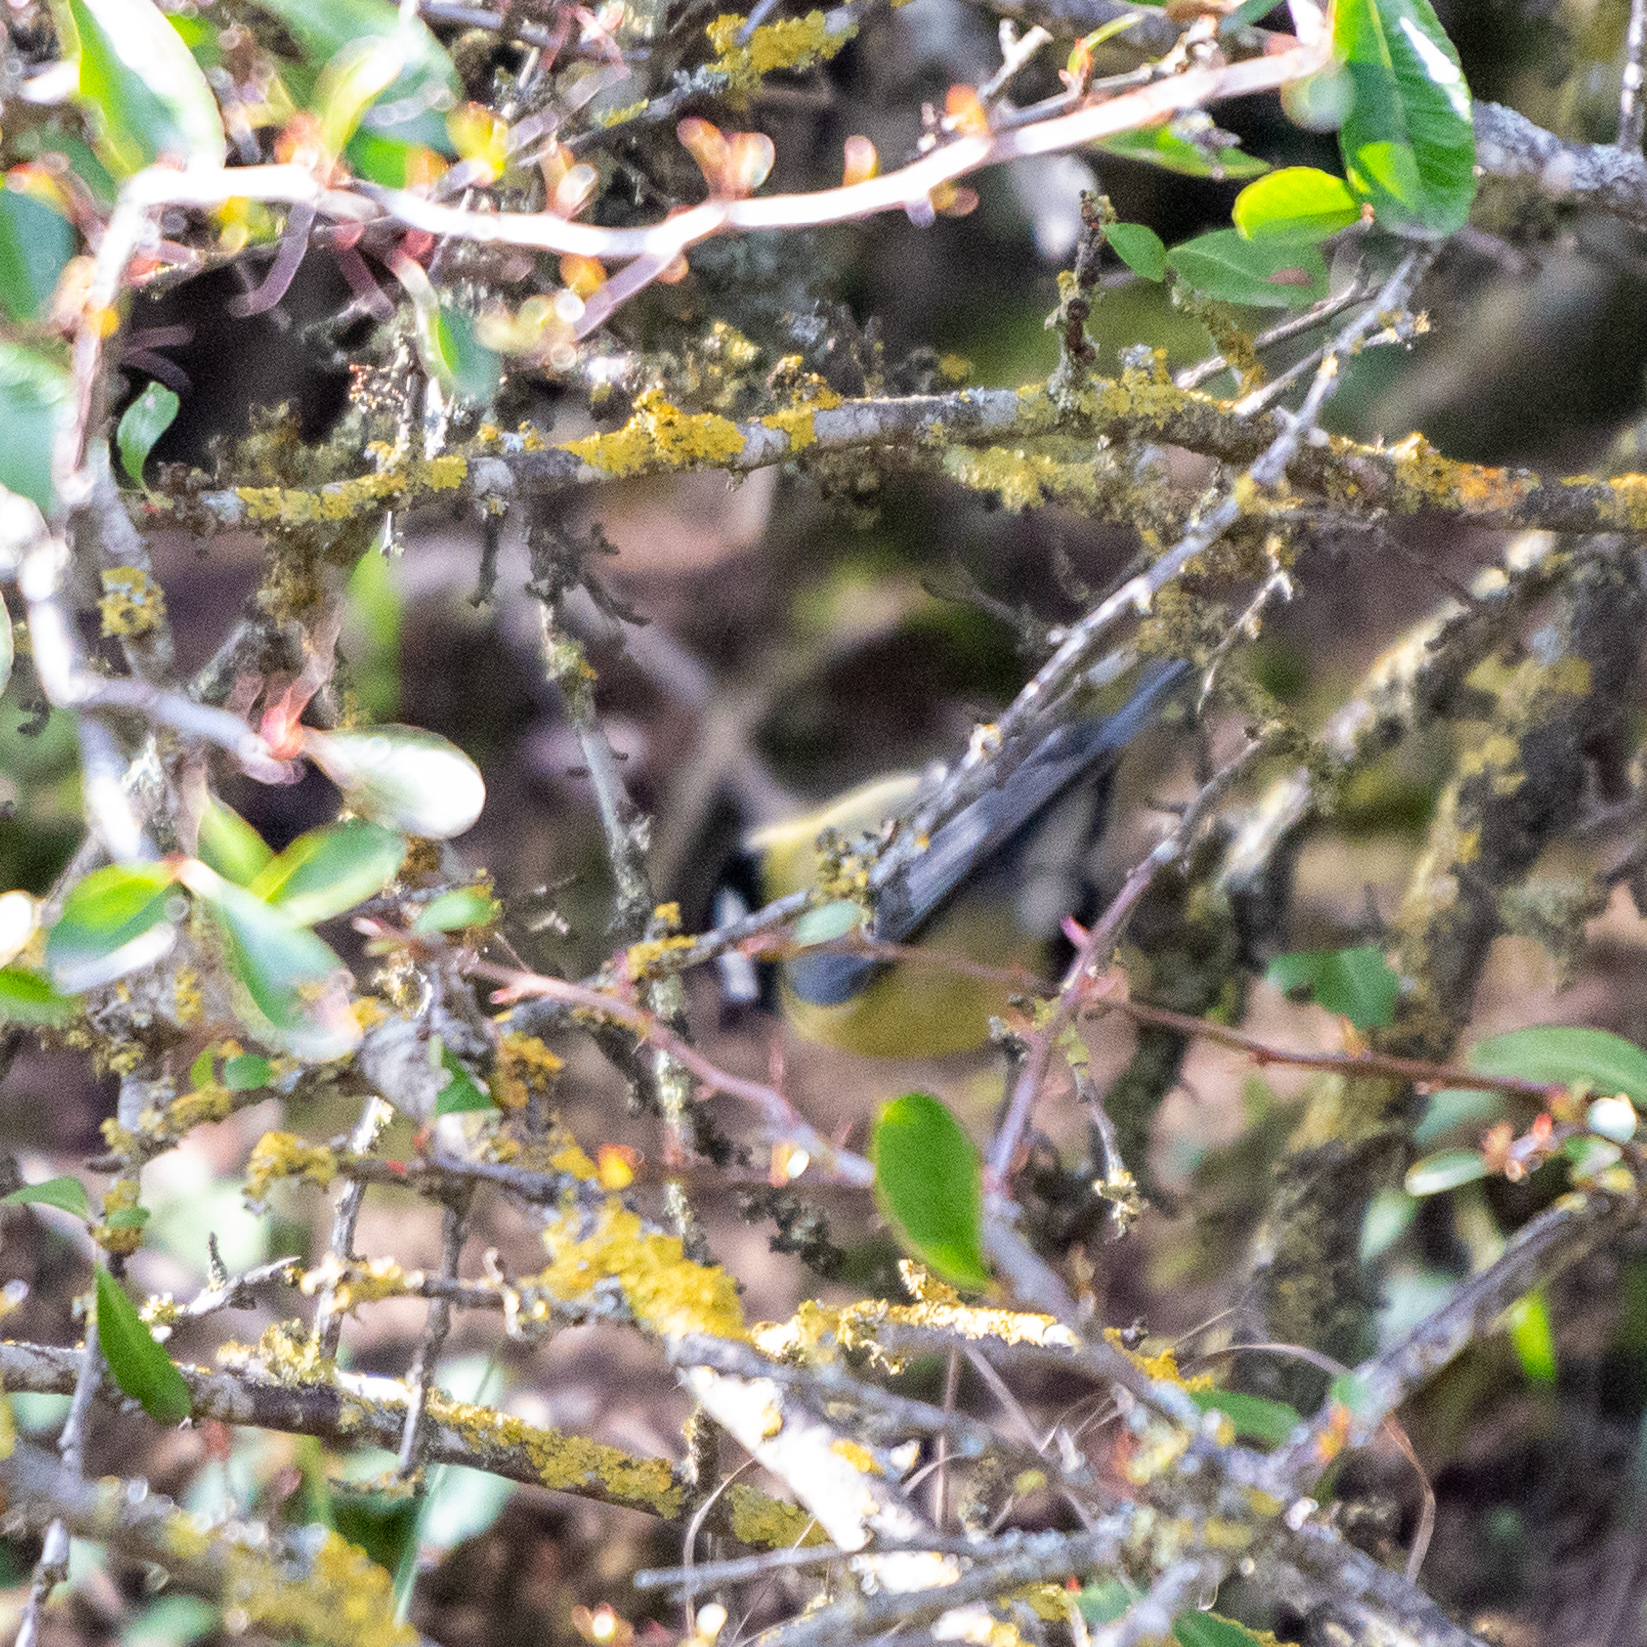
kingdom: Animalia
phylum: Chordata
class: Aves
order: Passeriformes
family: Paridae
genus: Parus
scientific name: Parus major
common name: Great tit
